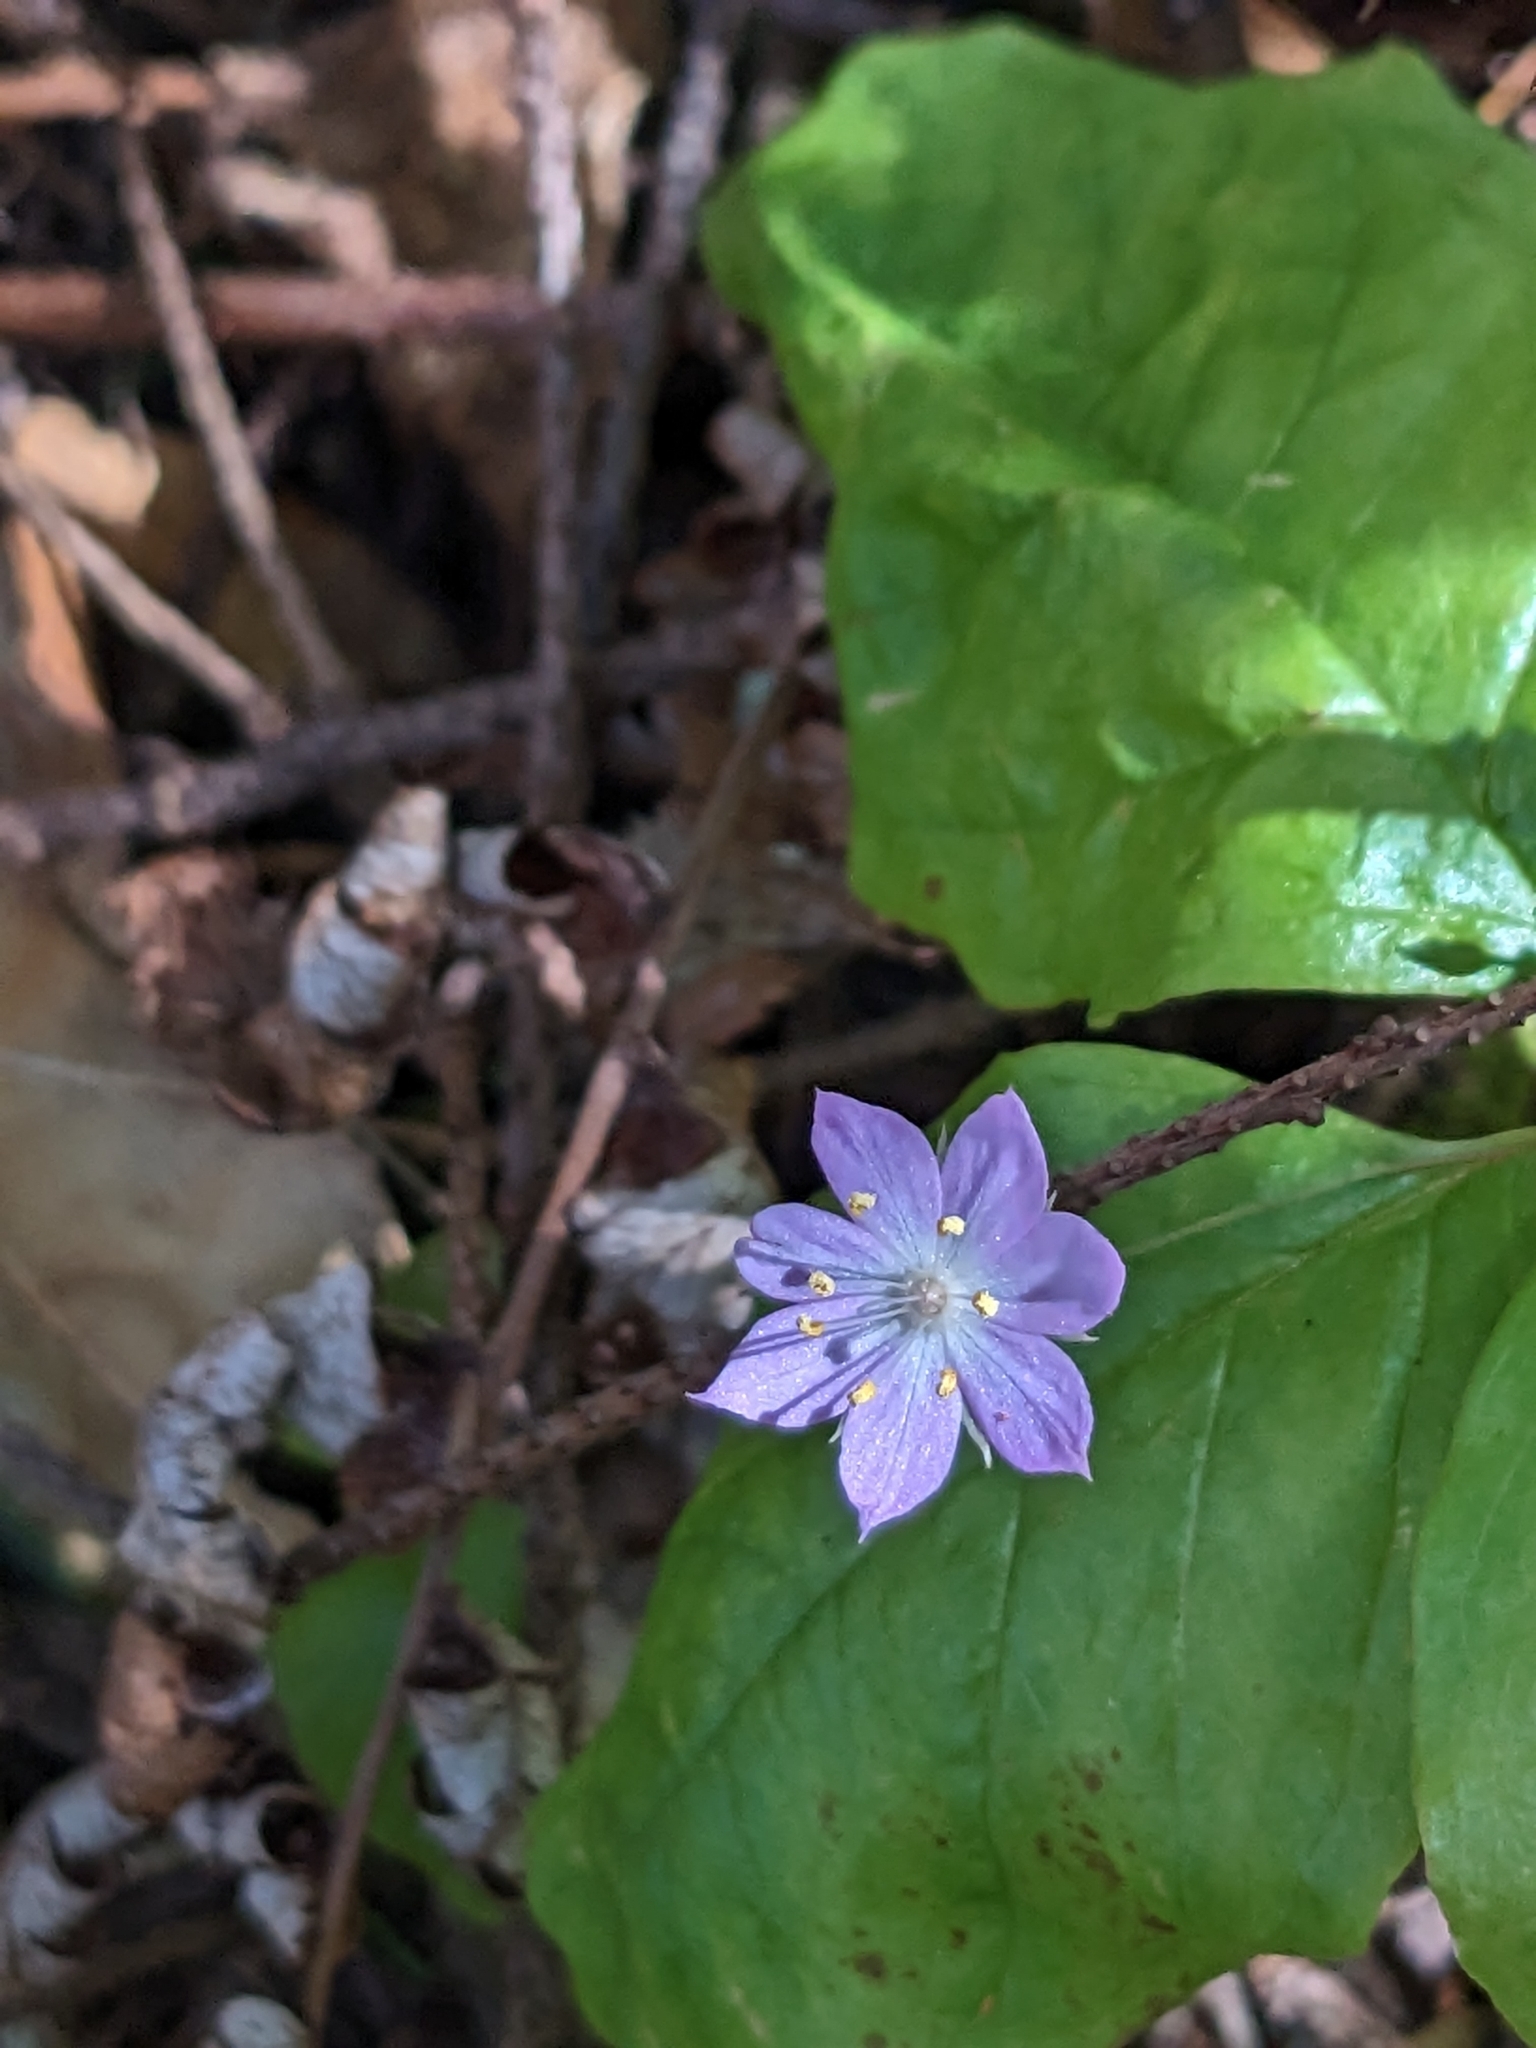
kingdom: Plantae
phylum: Tracheophyta
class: Magnoliopsida
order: Ericales
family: Primulaceae
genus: Lysimachia
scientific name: Lysimachia latifolia
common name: Pacific starflower
